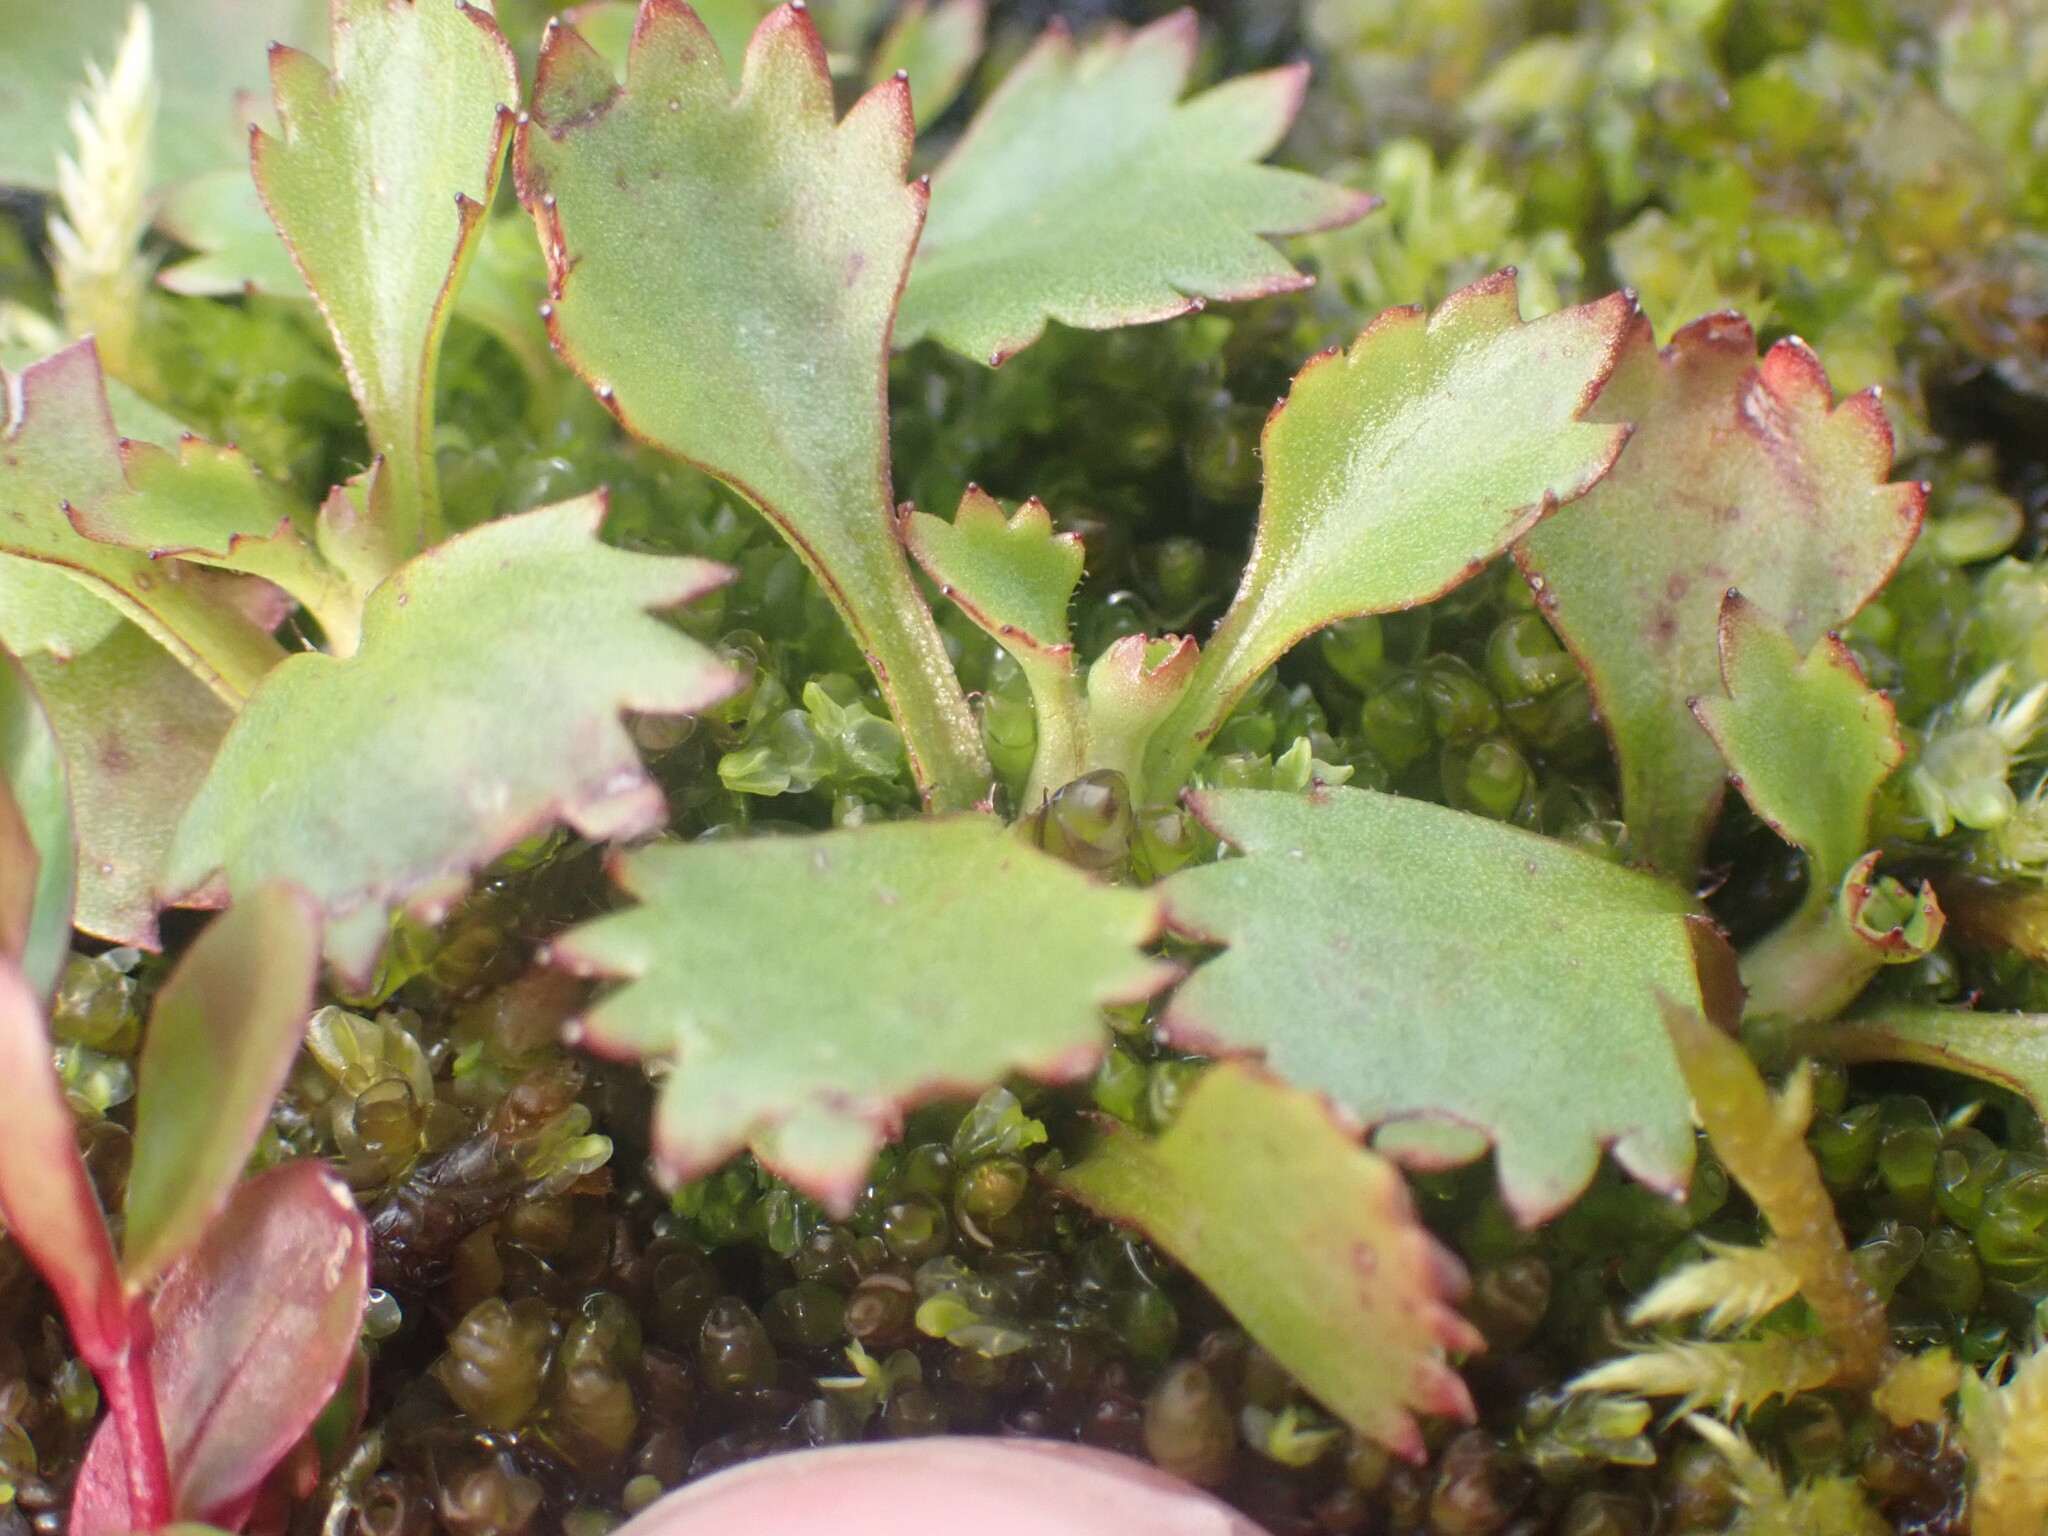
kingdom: Plantae
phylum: Tracheophyta
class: Magnoliopsida
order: Saxifragales
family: Saxifragaceae
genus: Micranthes
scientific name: Micranthes lyallii
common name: Lyall's saxifrage
